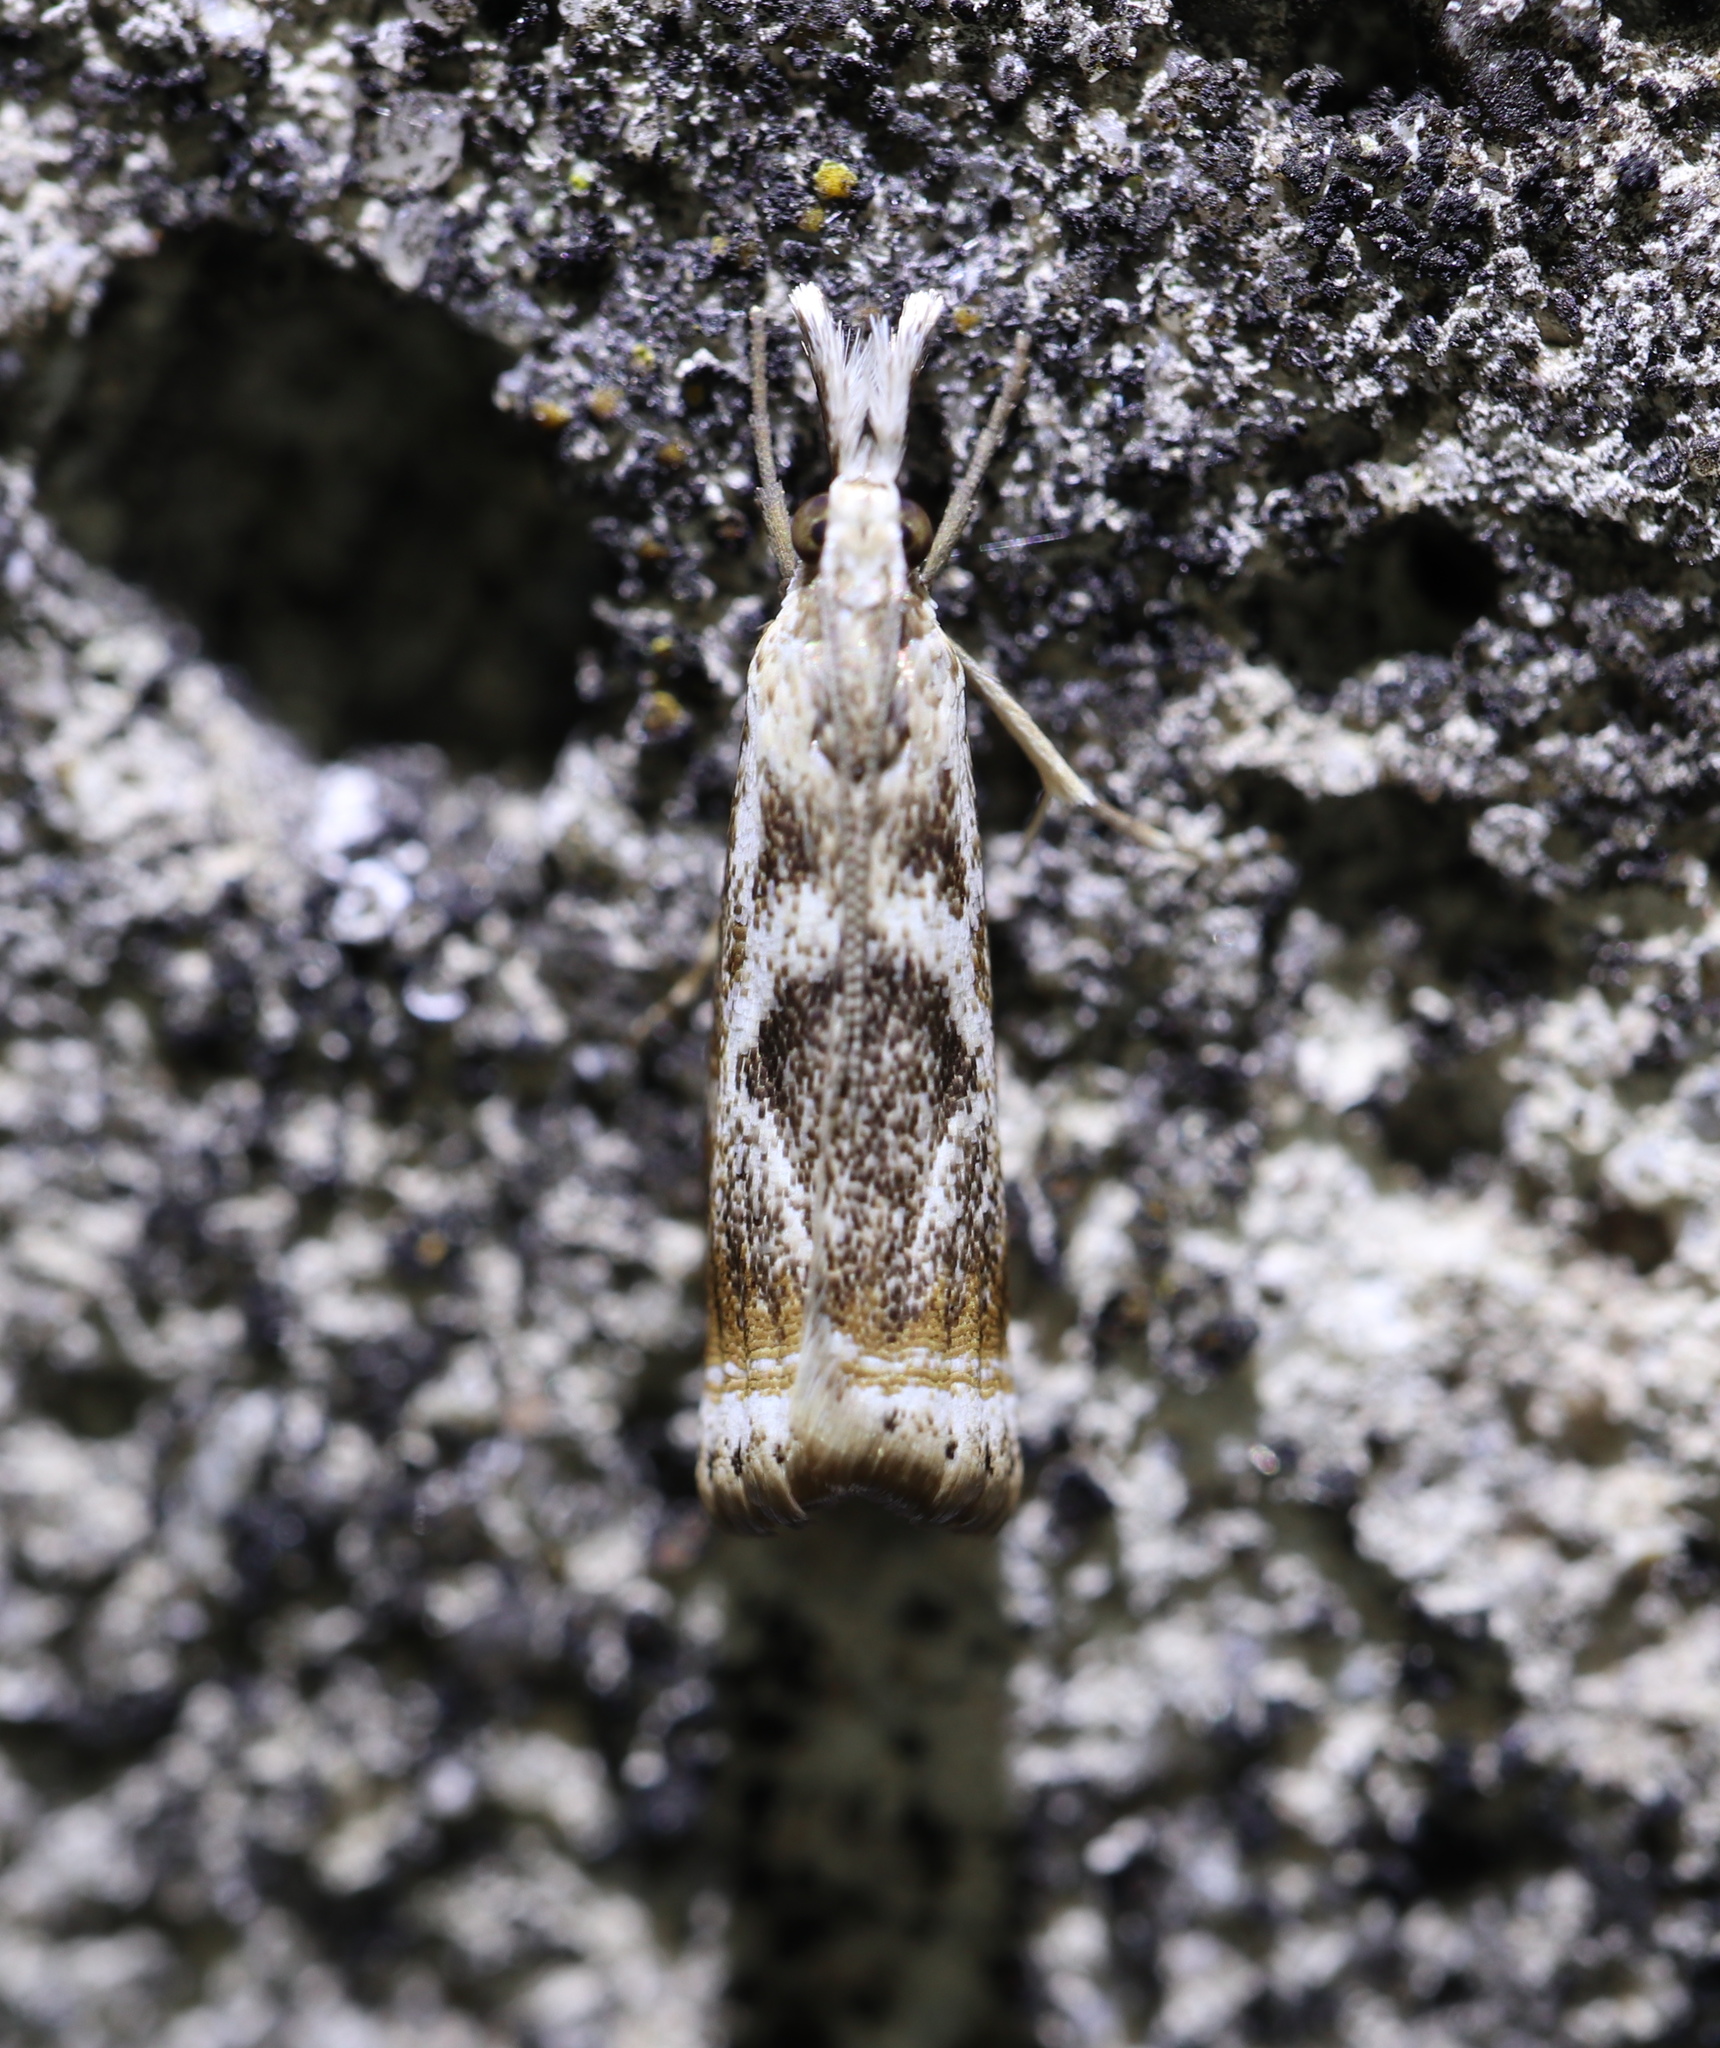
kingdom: Animalia
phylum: Arthropoda
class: Insecta
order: Lepidoptera
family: Crambidae
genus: Microcrambus
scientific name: Microcrambus elegans
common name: Elegant grass-veneer
